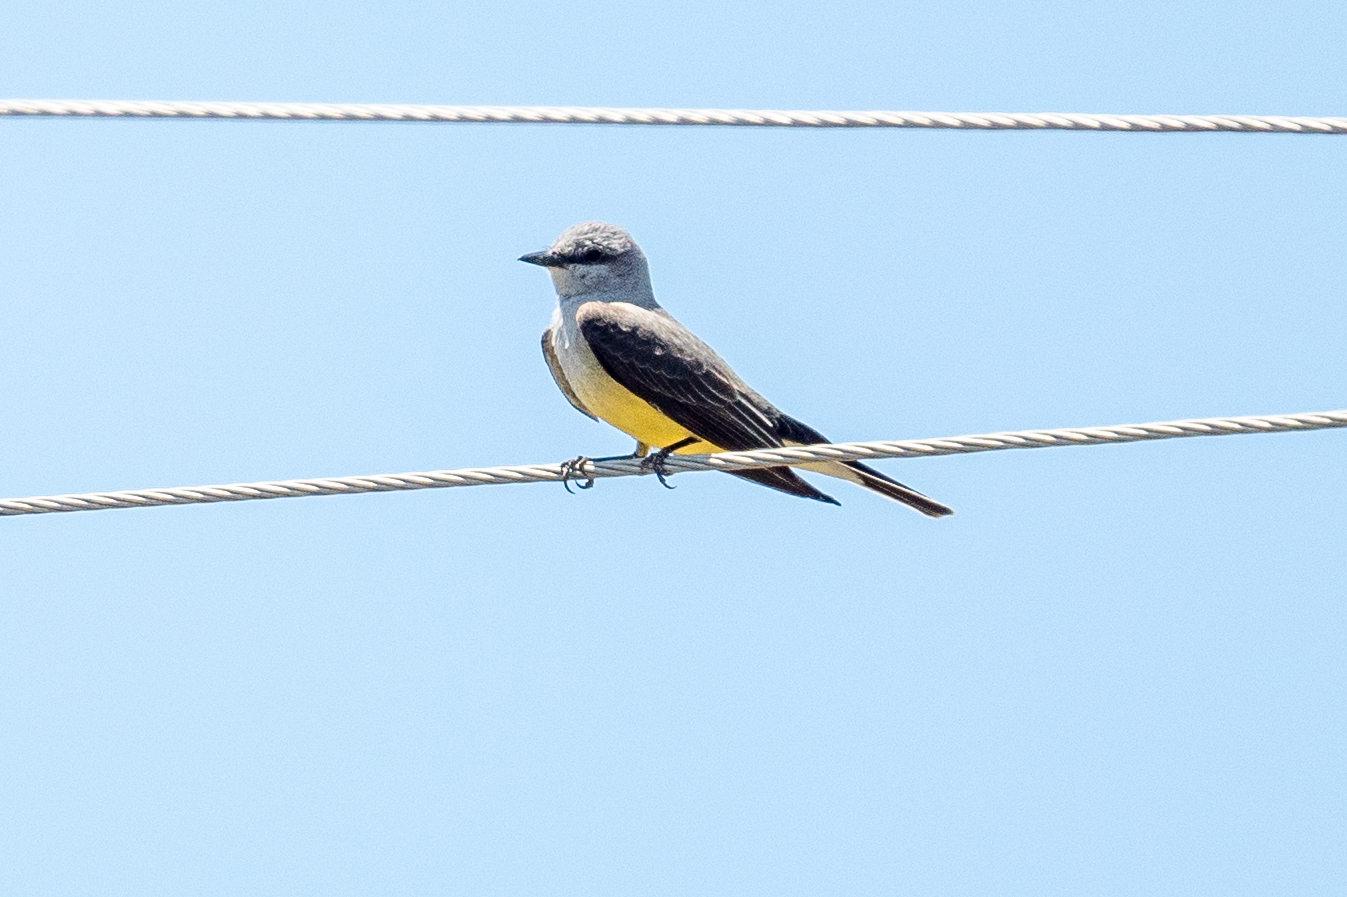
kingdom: Animalia
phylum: Chordata
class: Aves
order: Passeriformes
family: Tyrannidae
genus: Tyrannus
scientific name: Tyrannus verticalis
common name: Western kingbird
